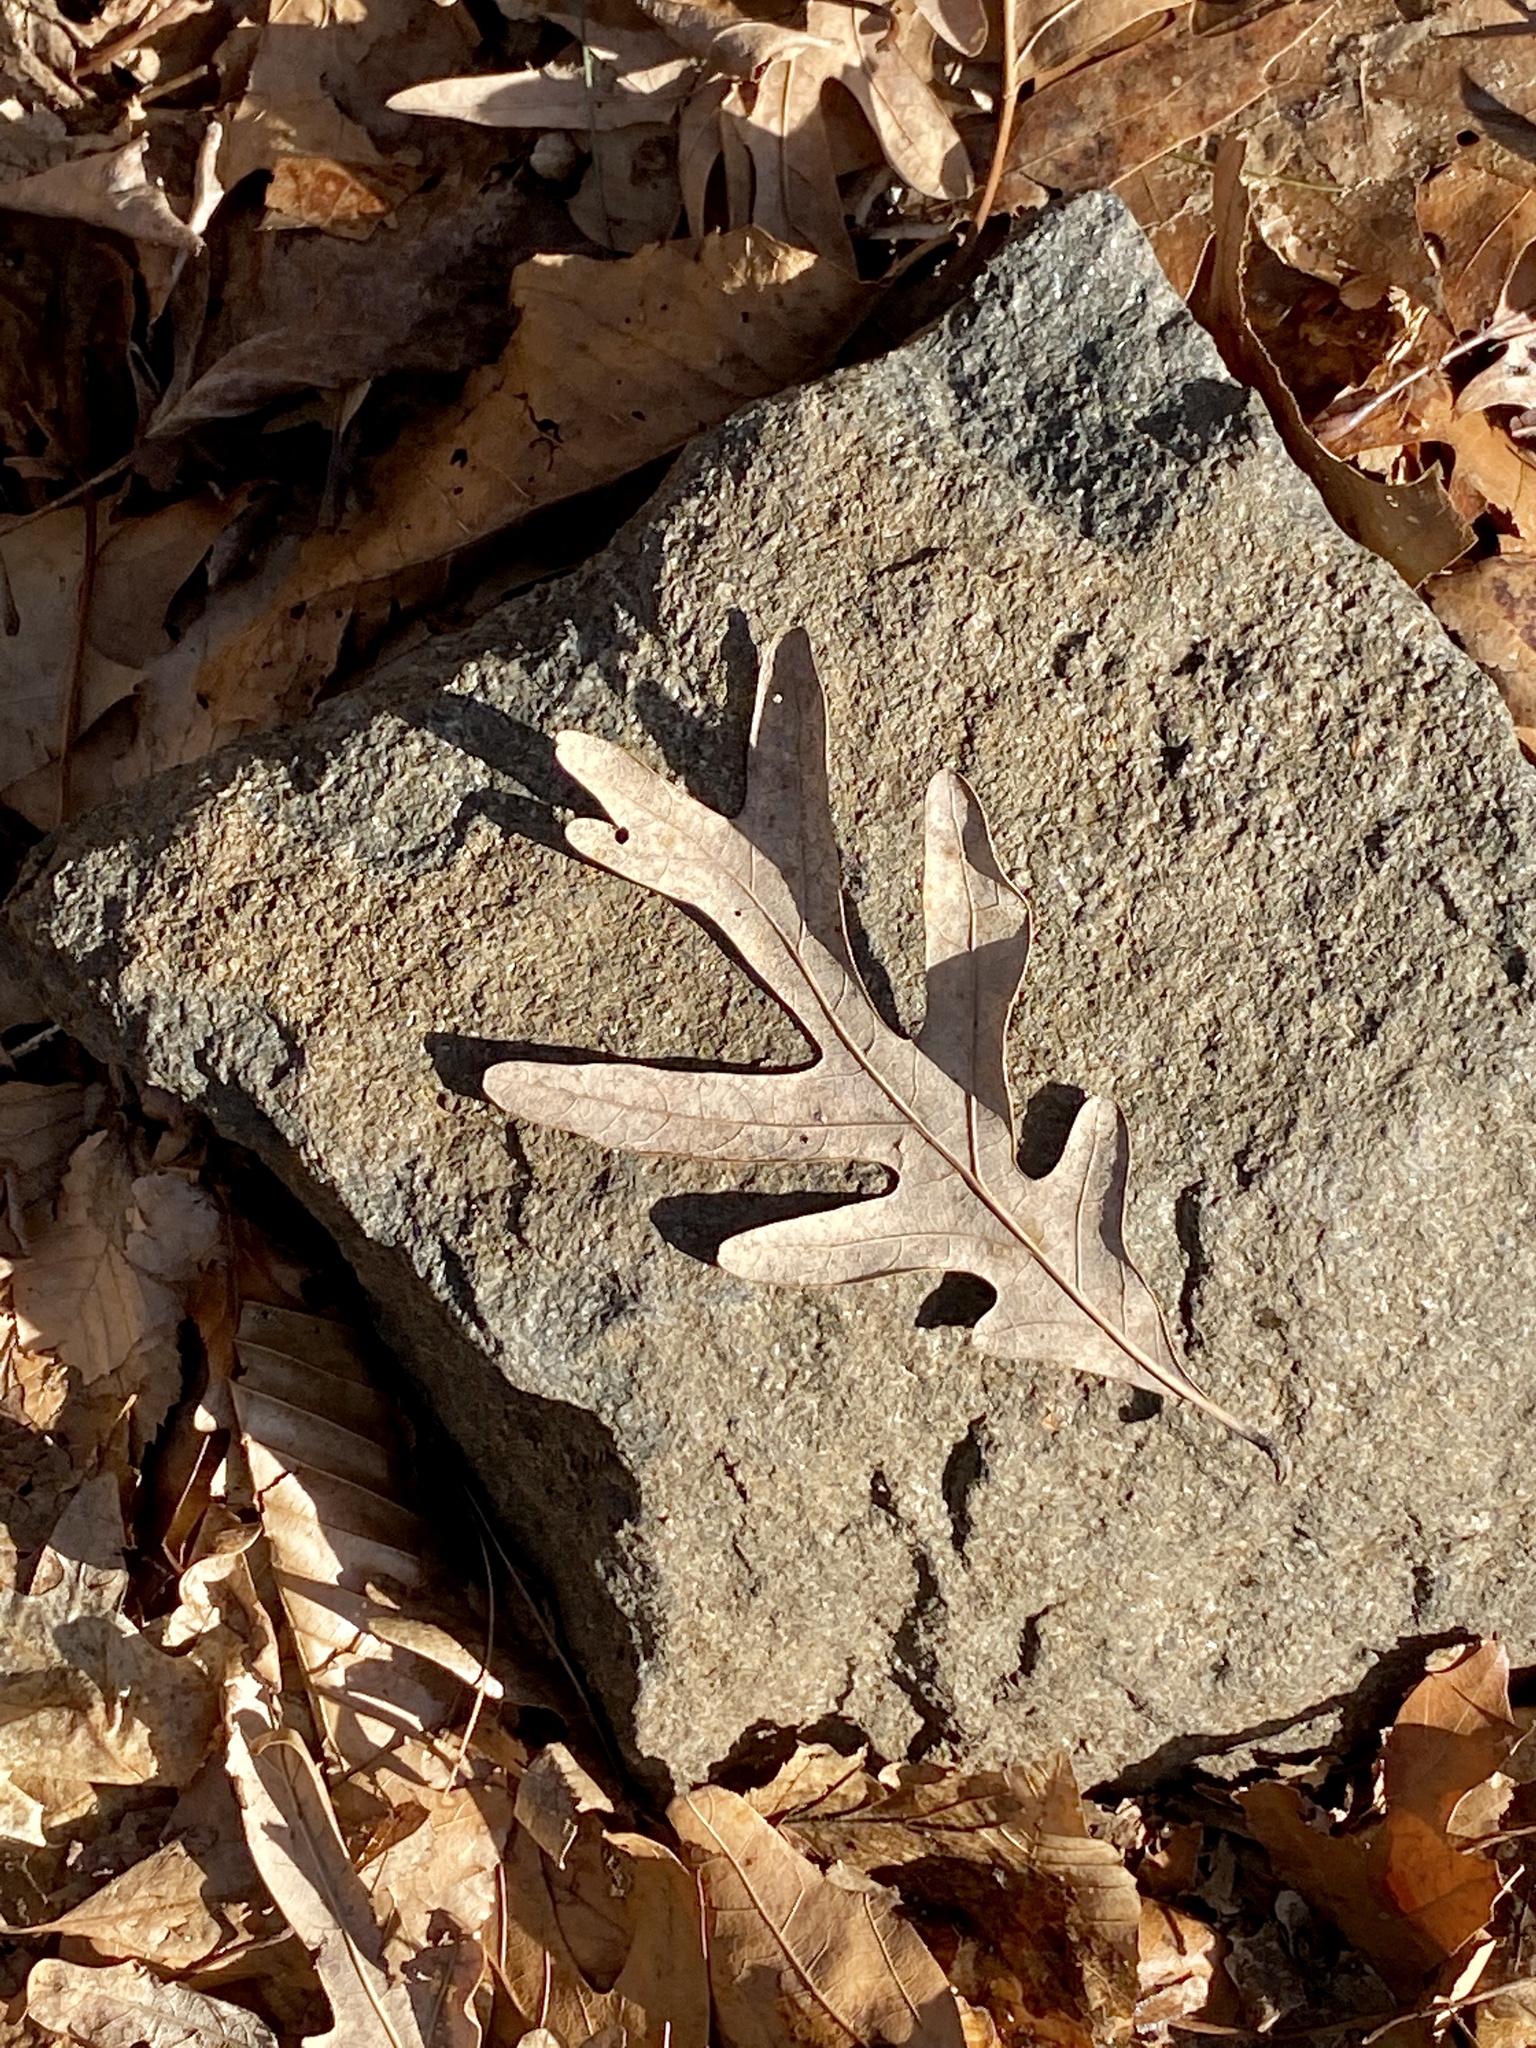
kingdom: Plantae
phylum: Tracheophyta
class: Magnoliopsida
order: Fagales
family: Fagaceae
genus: Quercus
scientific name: Quercus alba
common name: White oak
